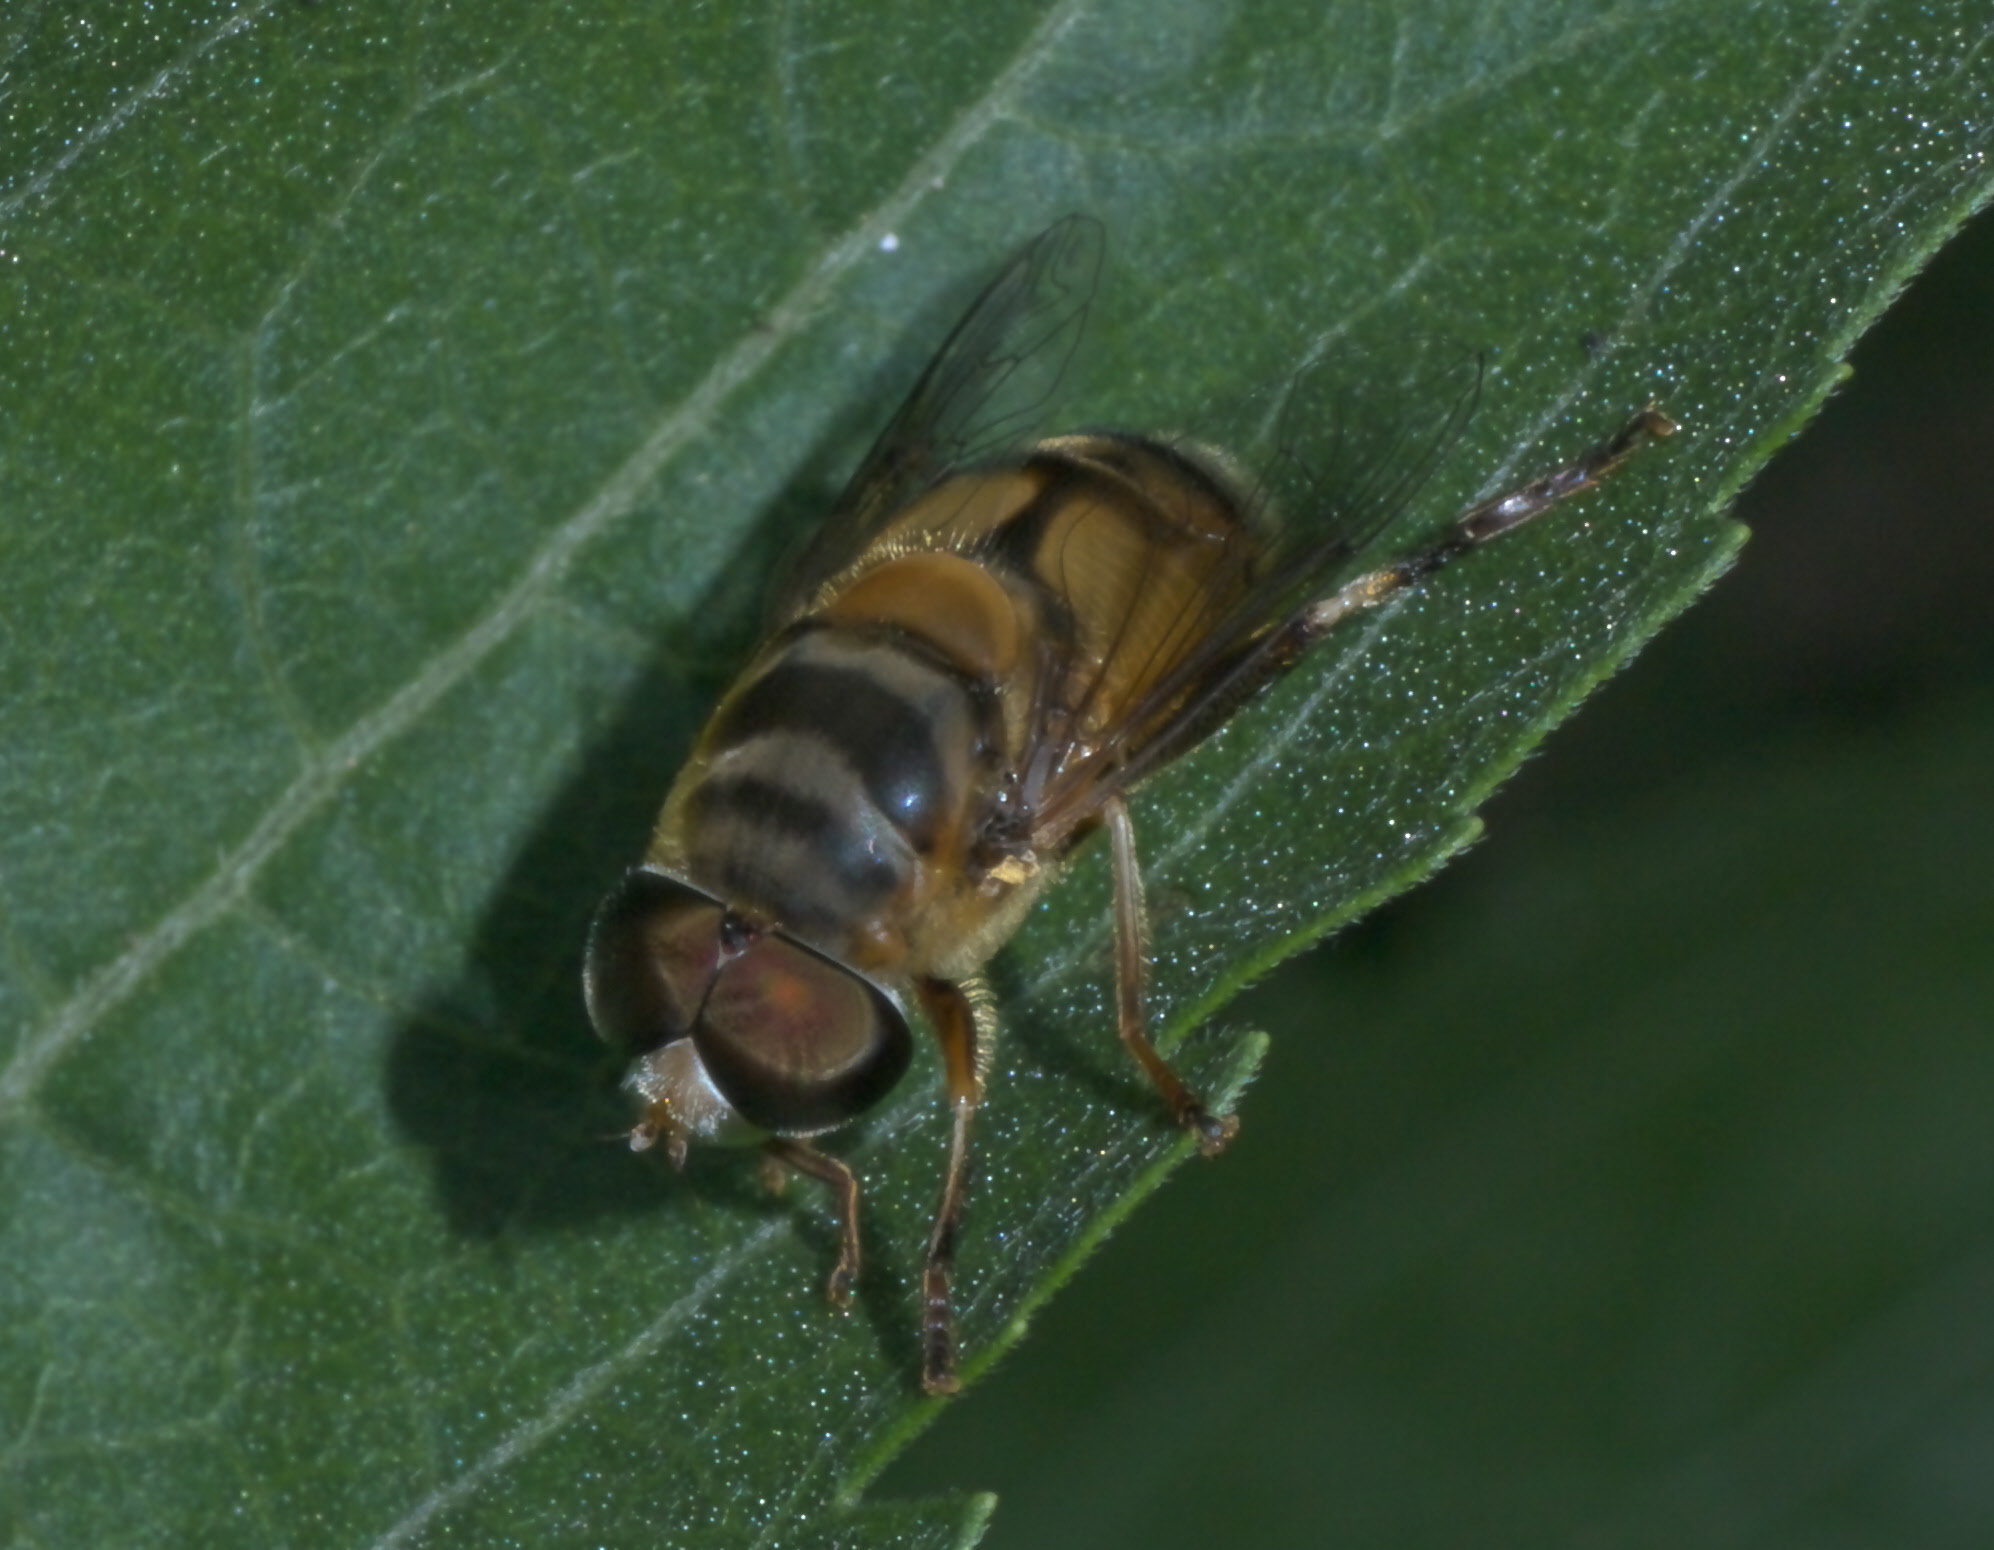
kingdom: Animalia
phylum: Arthropoda
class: Insecta
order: Diptera
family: Syrphidae
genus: Palpada
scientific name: Palpada vinetorum
